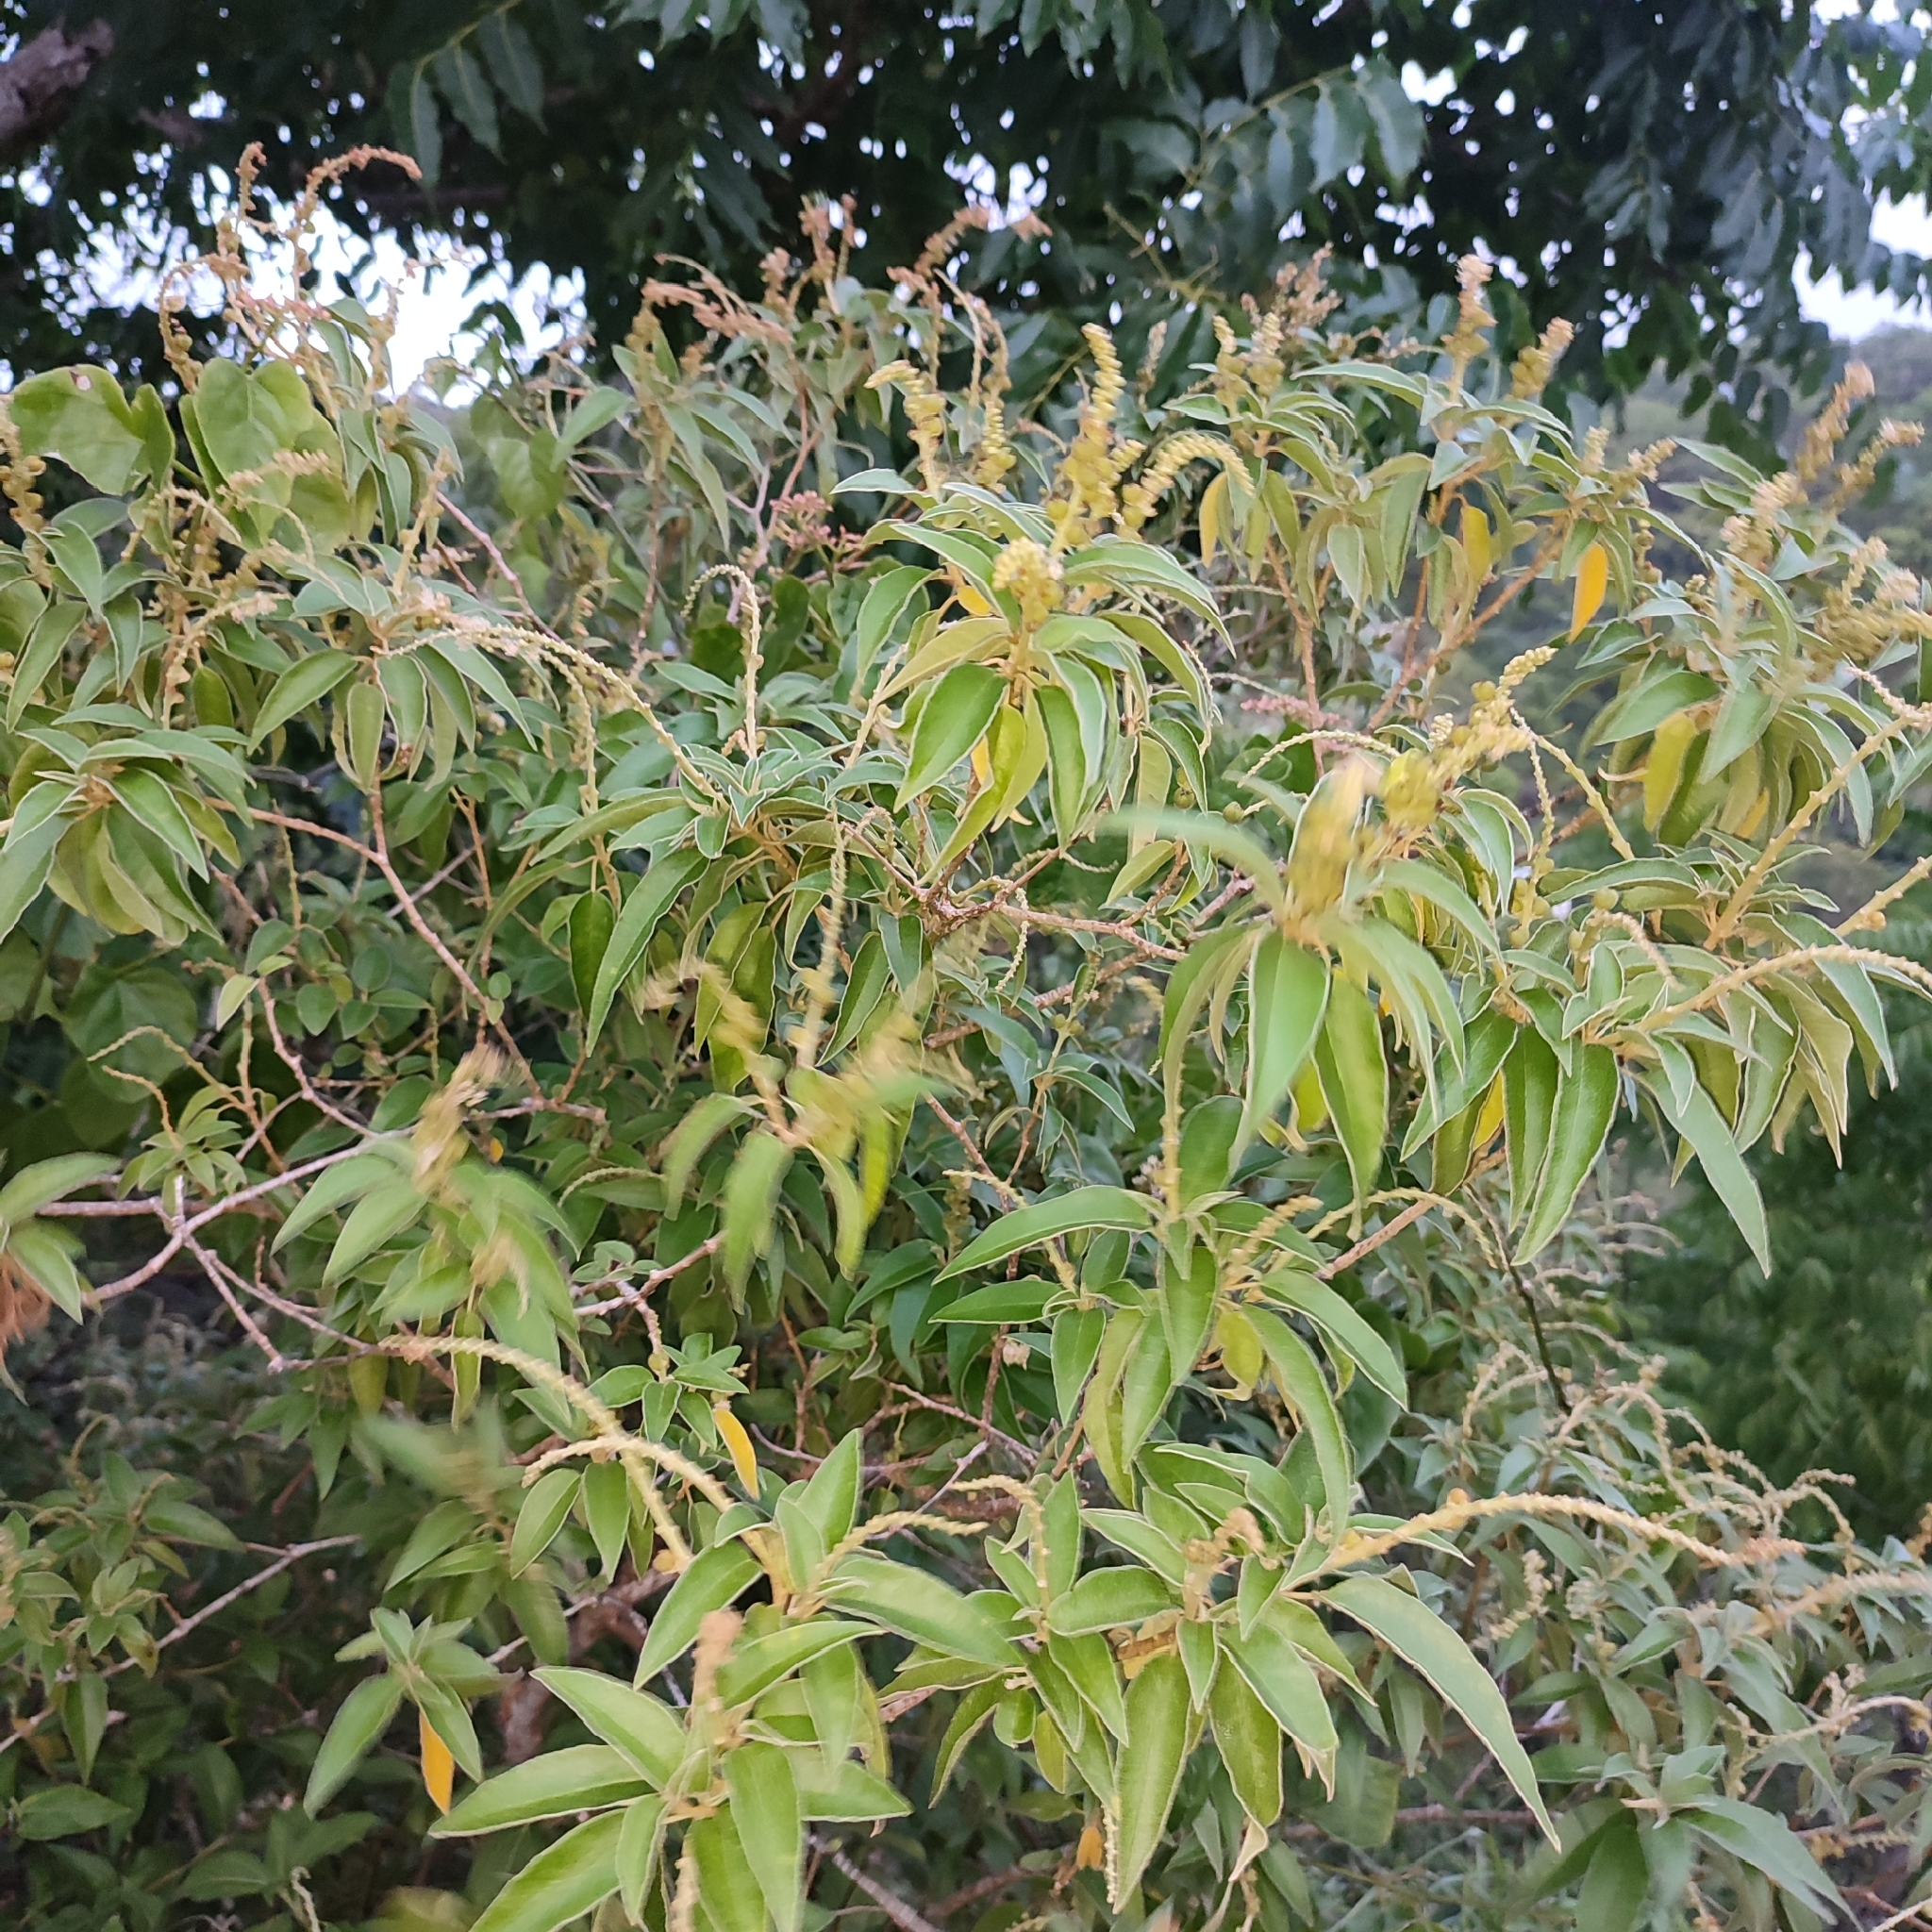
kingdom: Plantae
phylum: Tracheophyta
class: Magnoliopsida
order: Malpighiales
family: Euphorbiaceae
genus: Croton
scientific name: Croton flavens
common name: Yellow balsam
